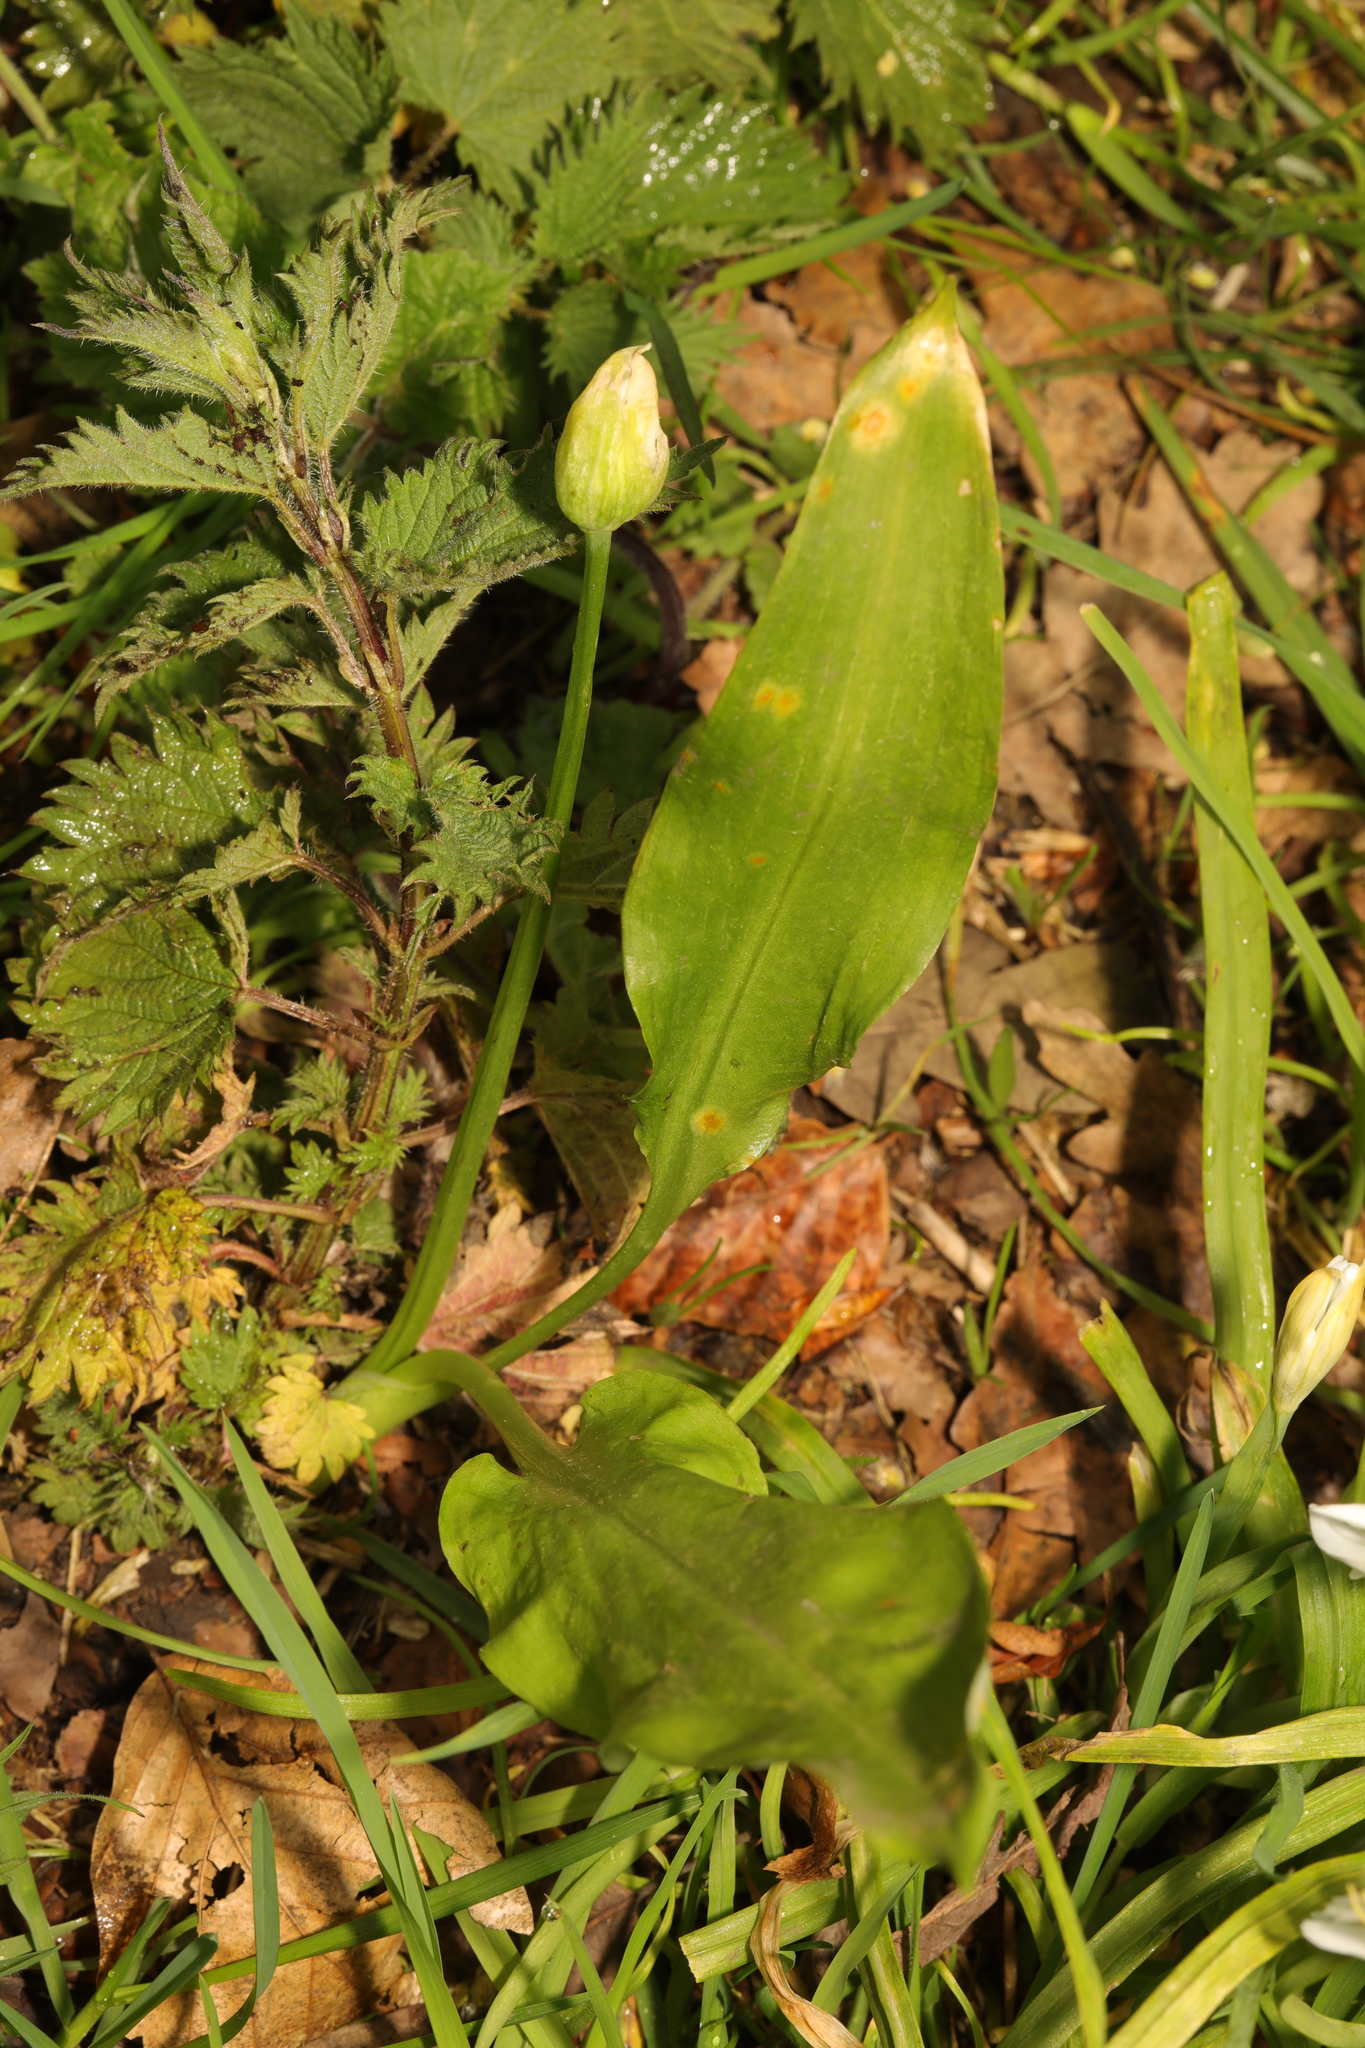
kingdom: Plantae
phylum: Tracheophyta
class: Liliopsida
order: Asparagales
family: Amaryllidaceae
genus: Allium
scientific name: Allium ursinum
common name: Ramsons
